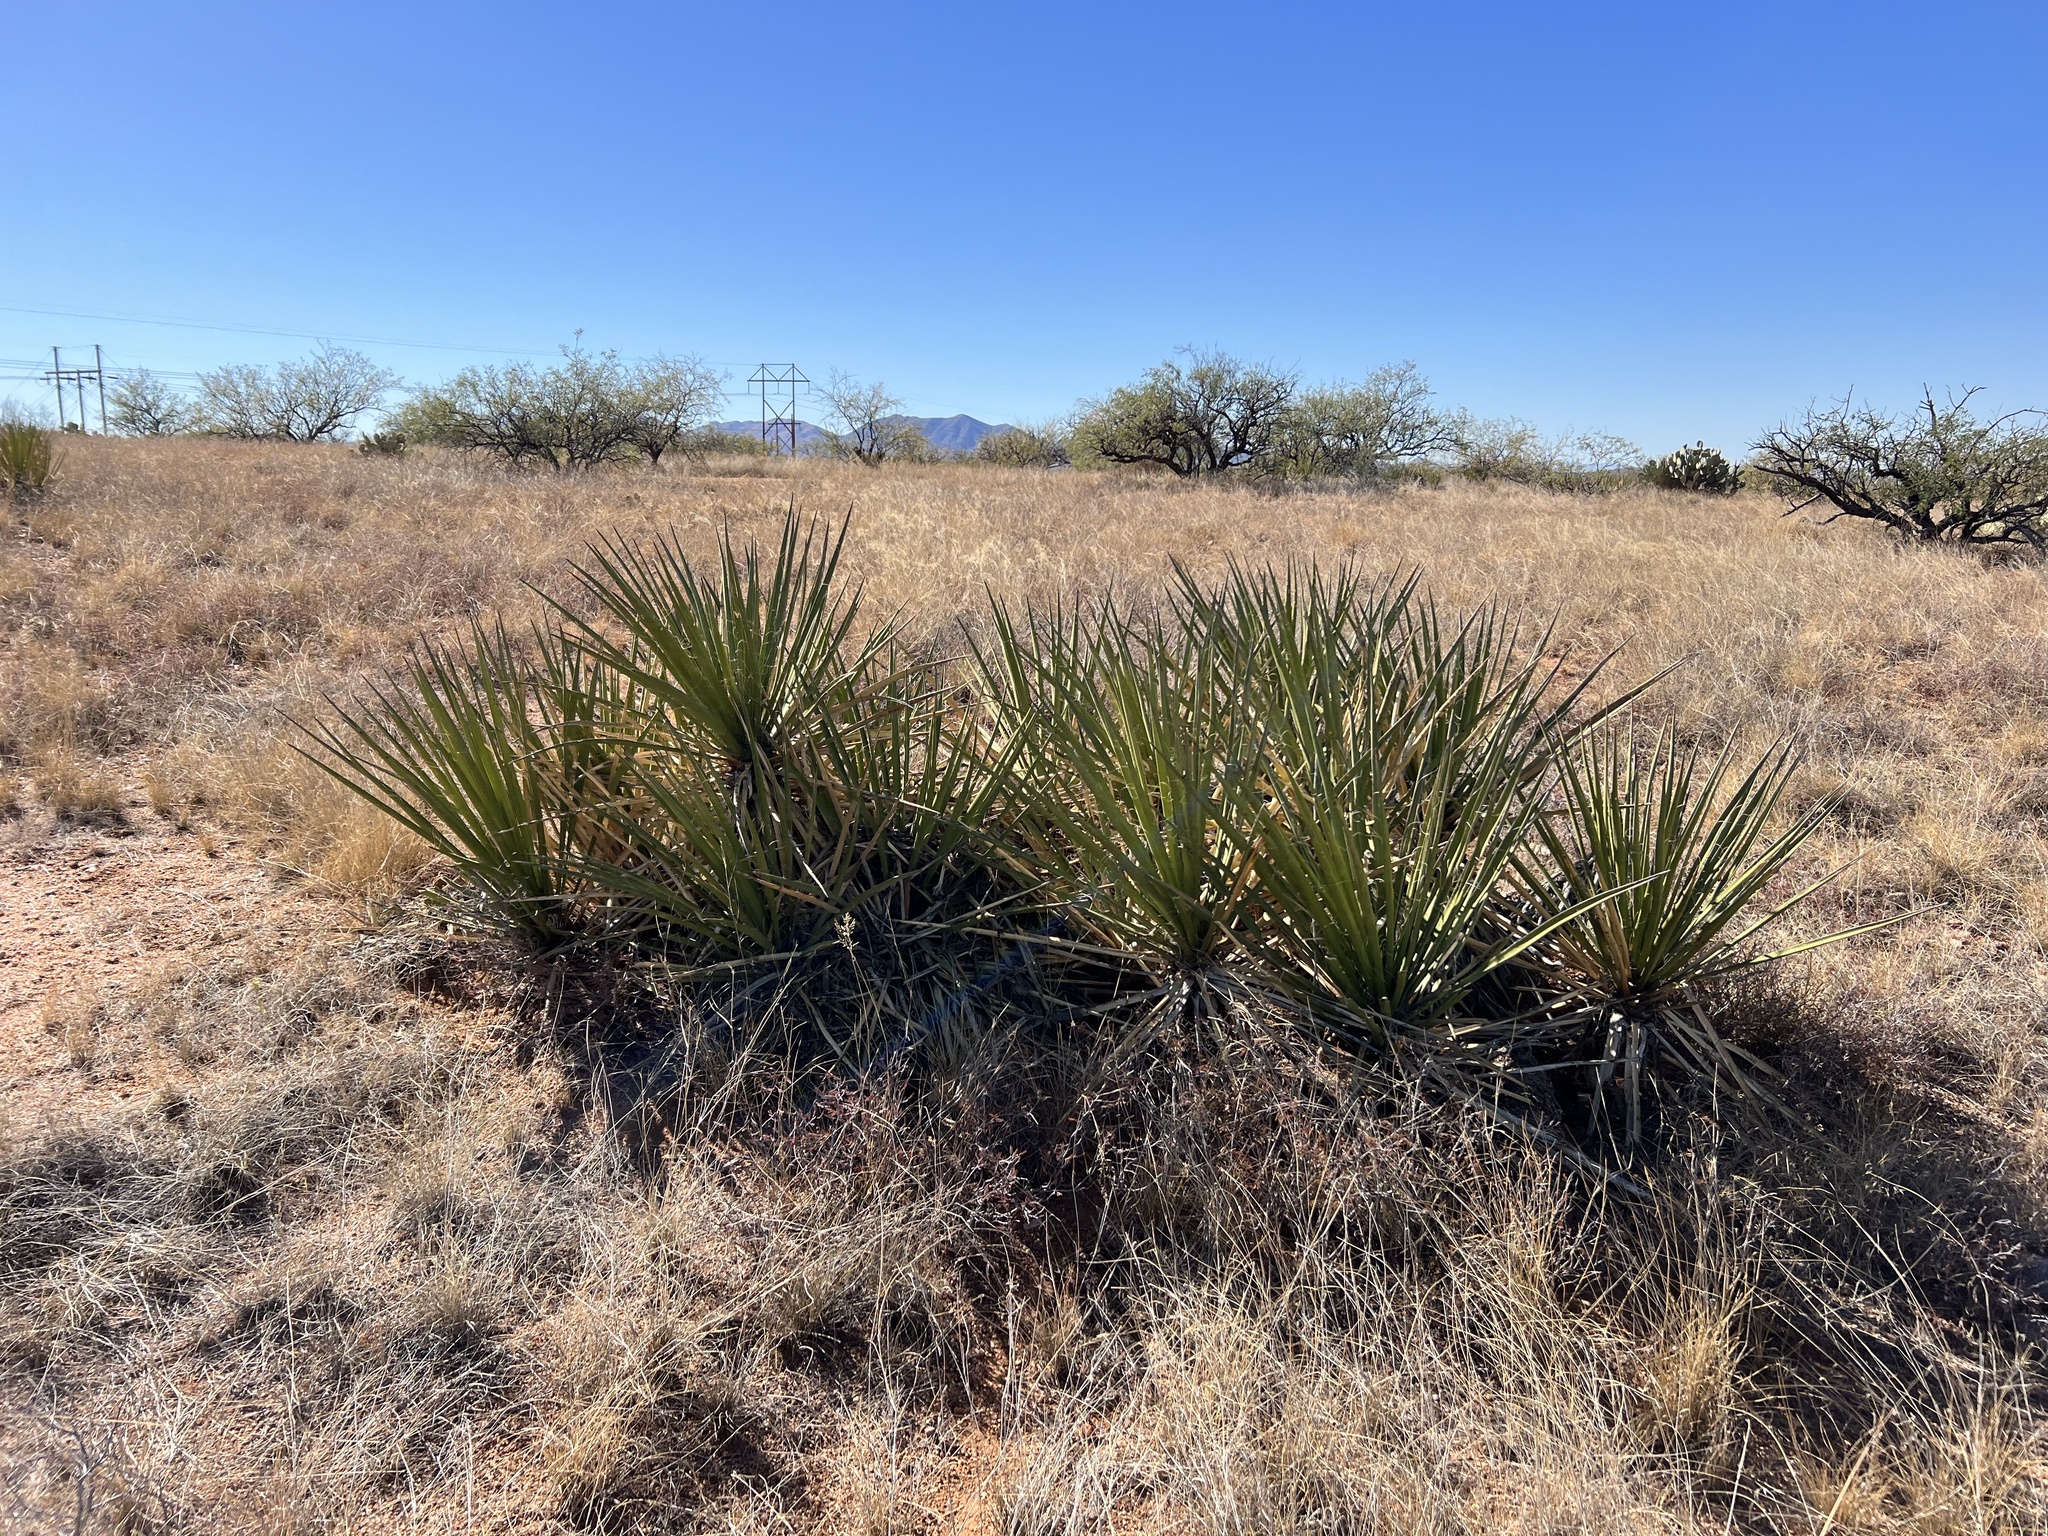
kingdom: Plantae
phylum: Tracheophyta
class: Liliopsida
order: Asparagales
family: Asparagaceae
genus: Yucca
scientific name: Yucca baccata
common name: Banana yucca
